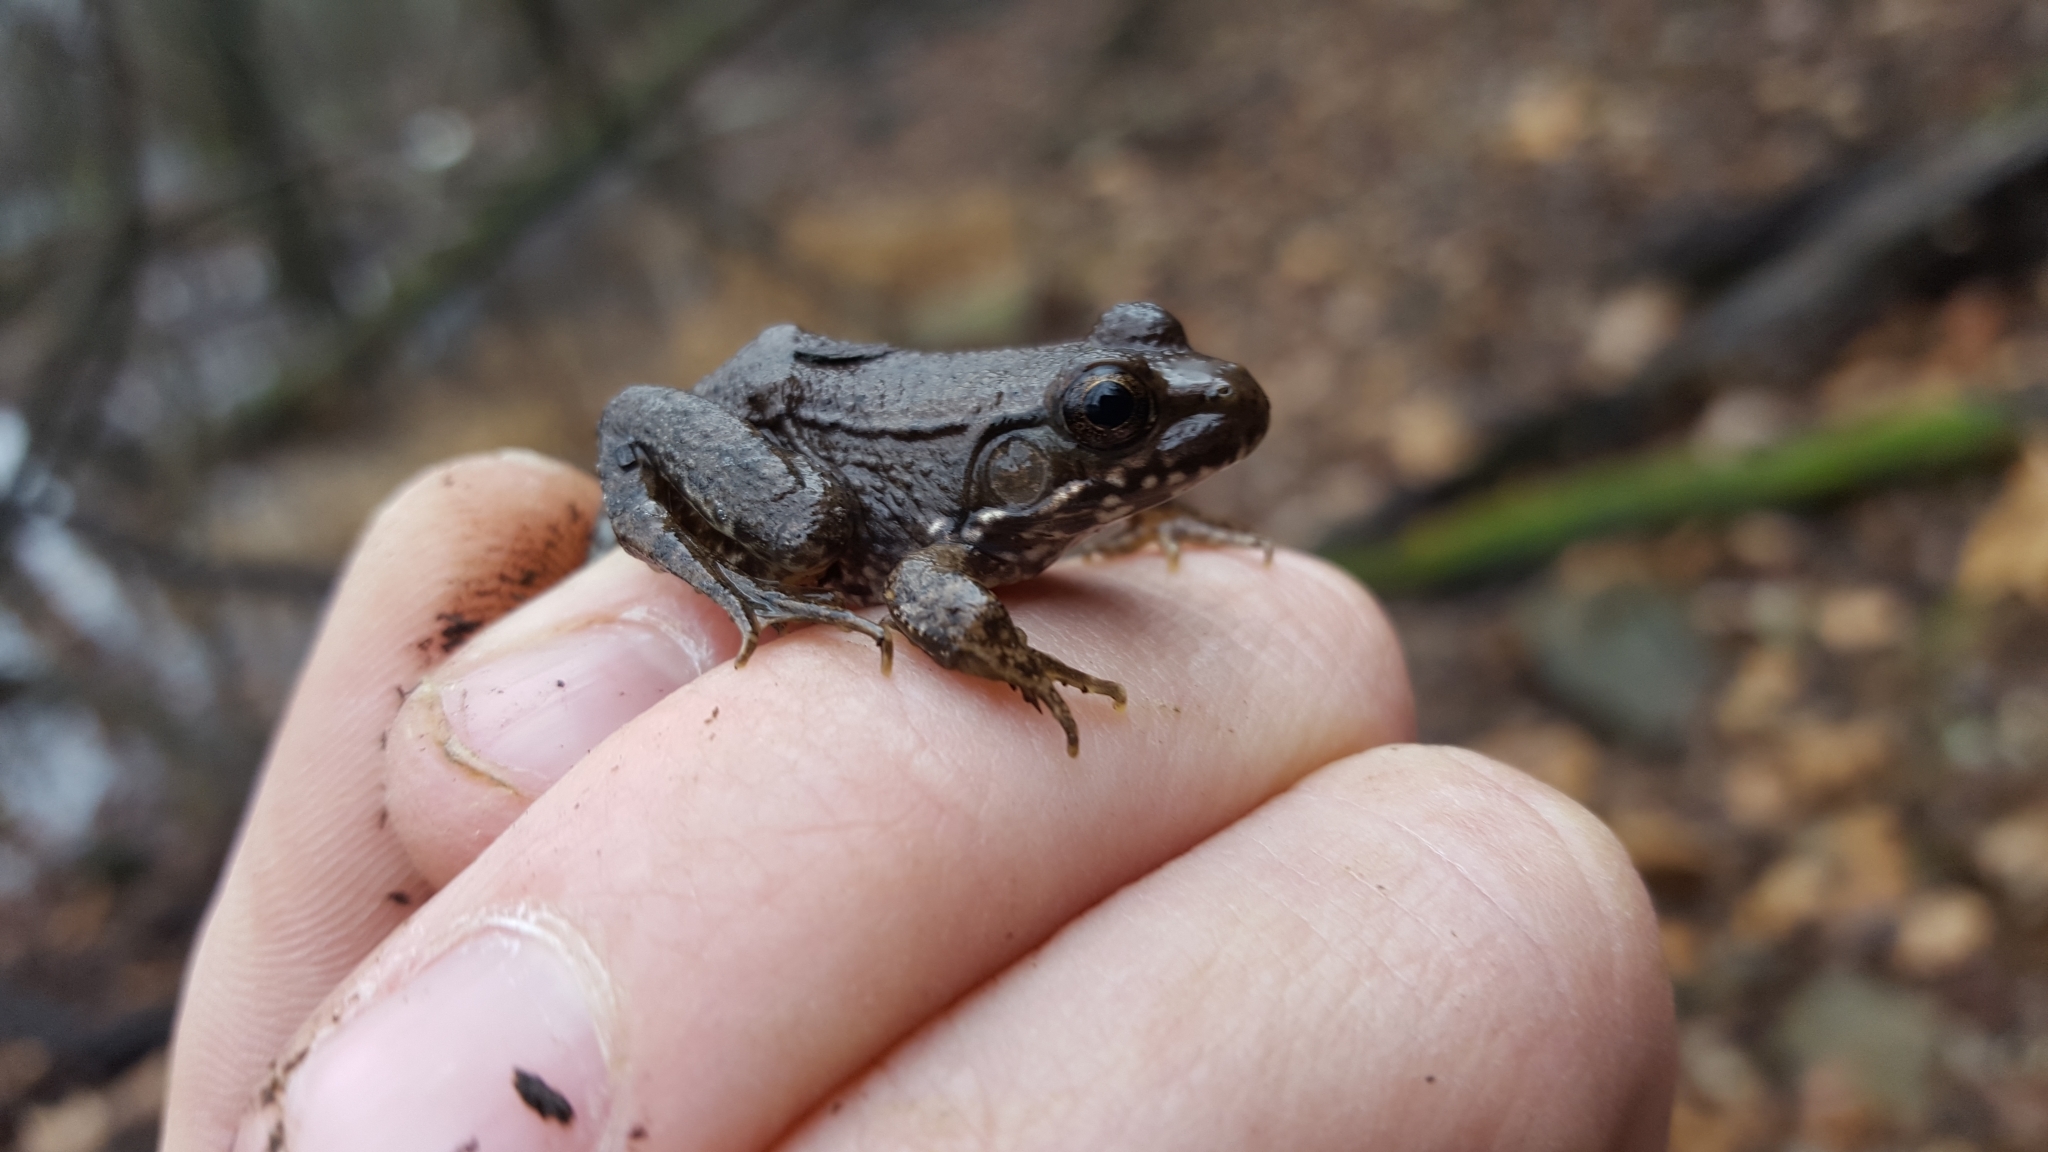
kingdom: Animalia
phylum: Chordata
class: Amphibia
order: Anura
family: Ranidae
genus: Lithobates
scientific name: Lithobates clamitans
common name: Green frog
